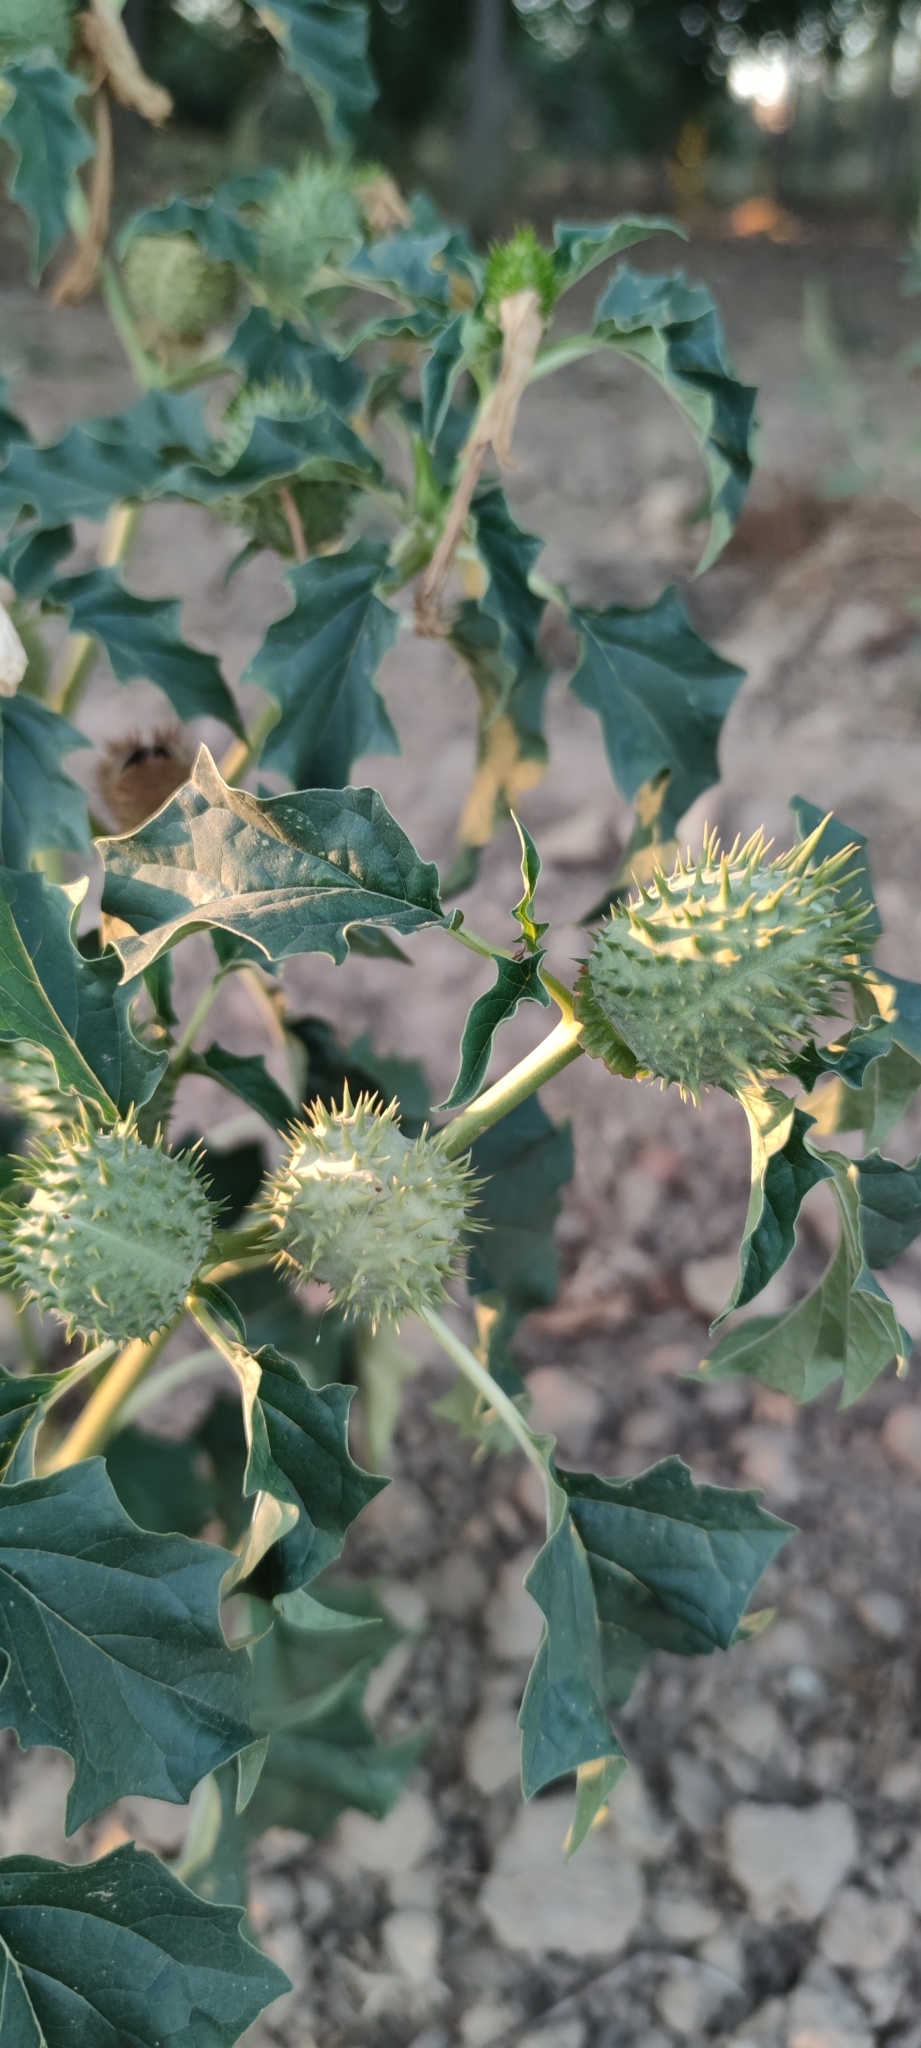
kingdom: Plantae
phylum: Tracheophyta
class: Magnoliopsida
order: Solanales
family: Solanaceae
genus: Datura
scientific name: Datura stramonium
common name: Thorn-apple
